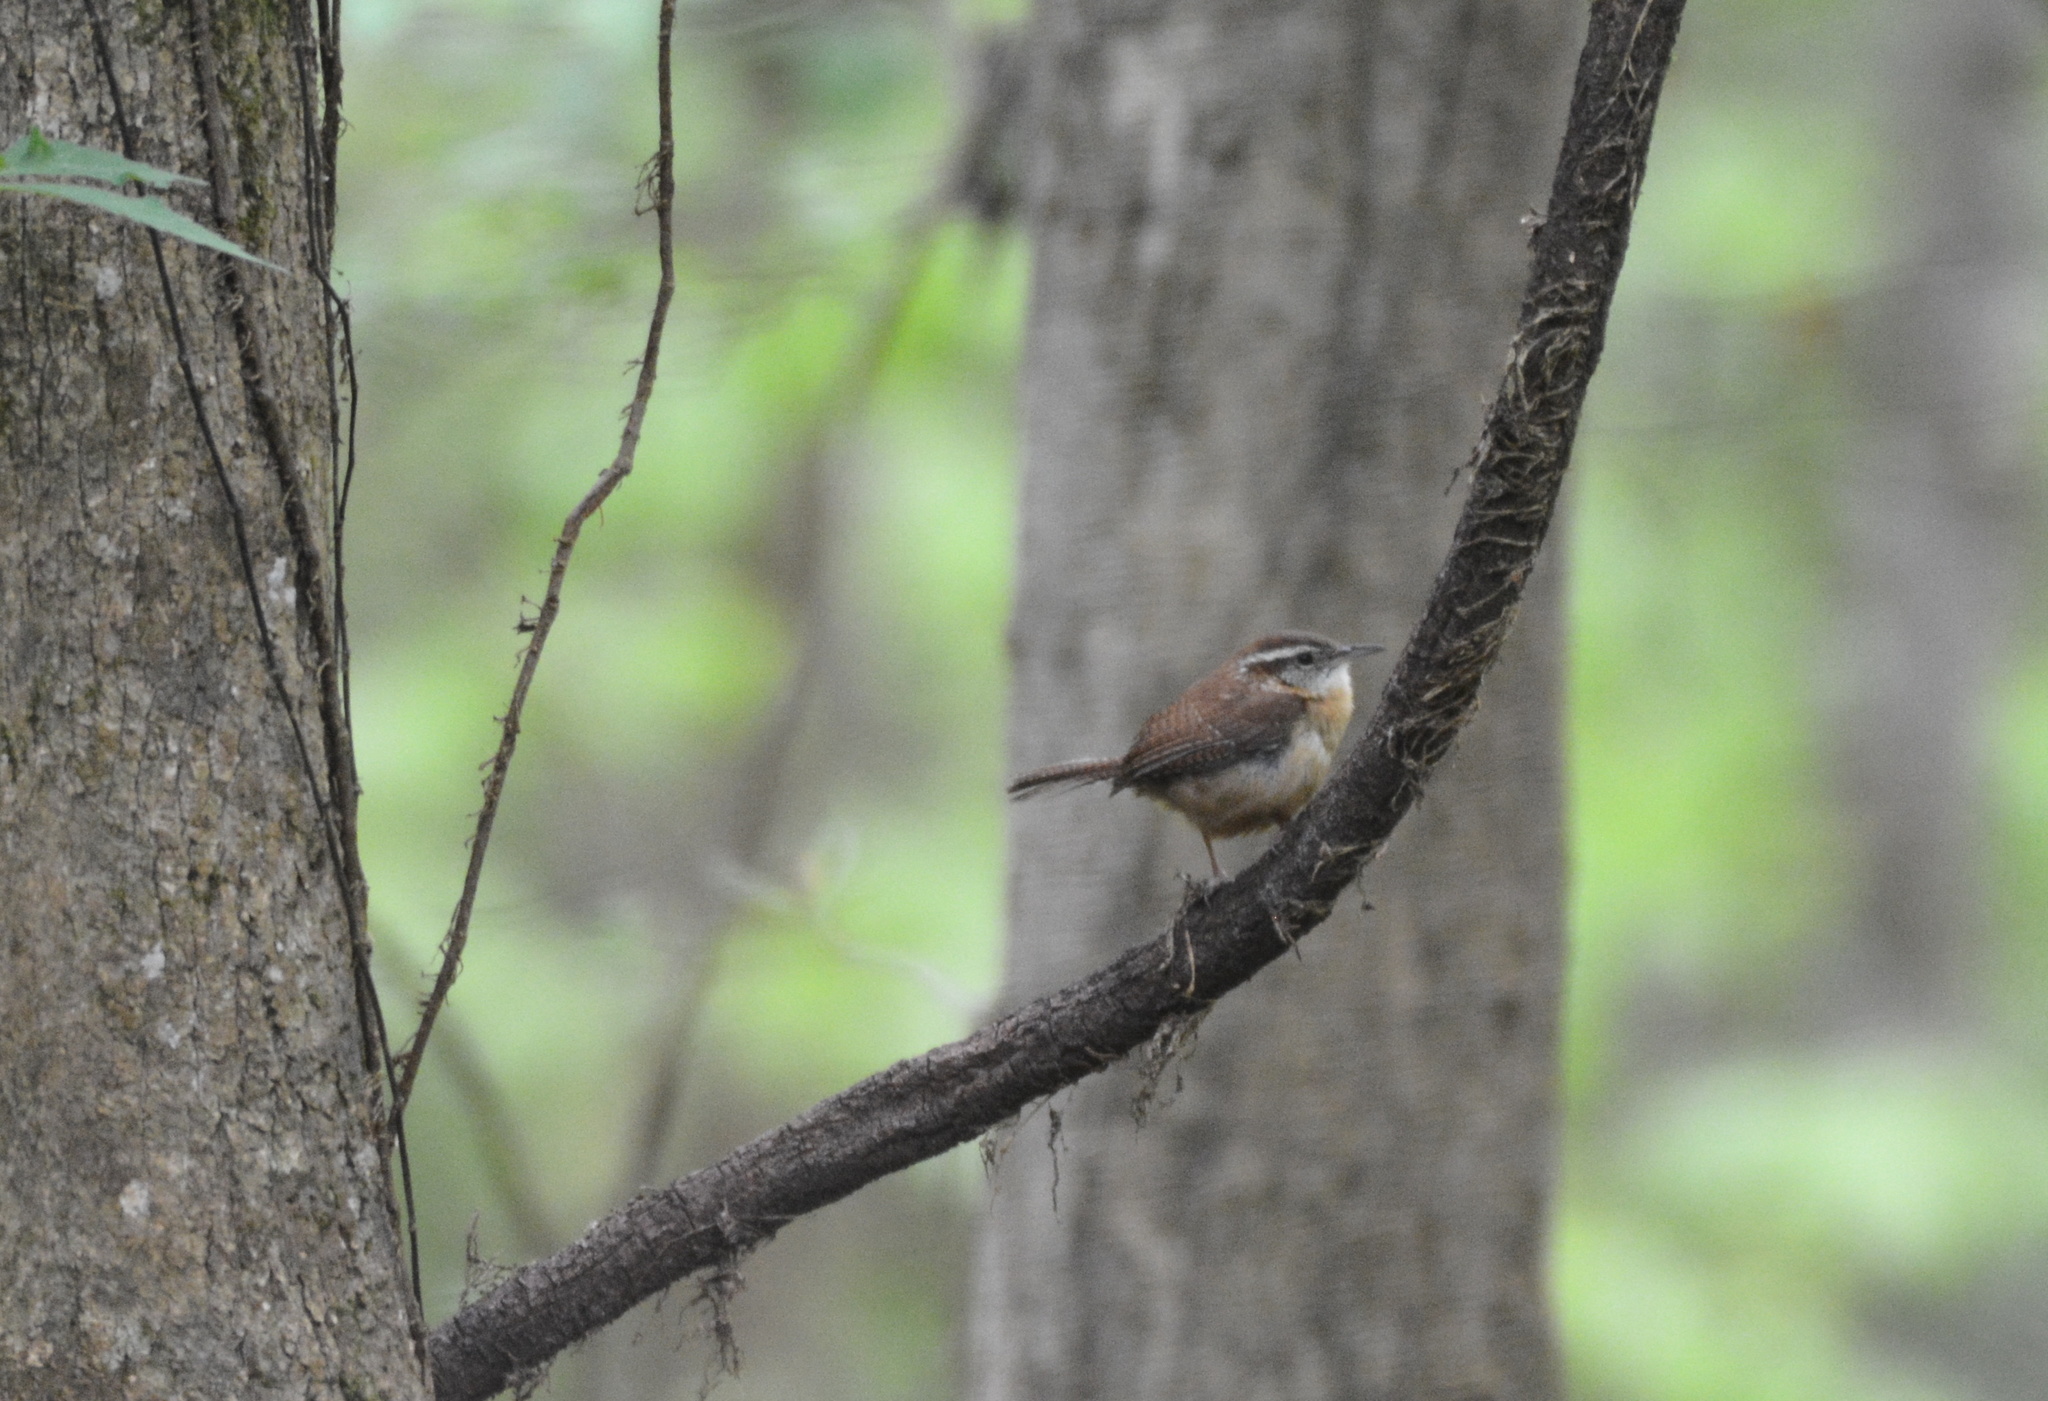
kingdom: Animalia
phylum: Chordata
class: Aves
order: Passeriformes
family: Troglodytidae
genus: Thryothorus
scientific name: Thryothorus ludovicianus
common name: Carolina wren
